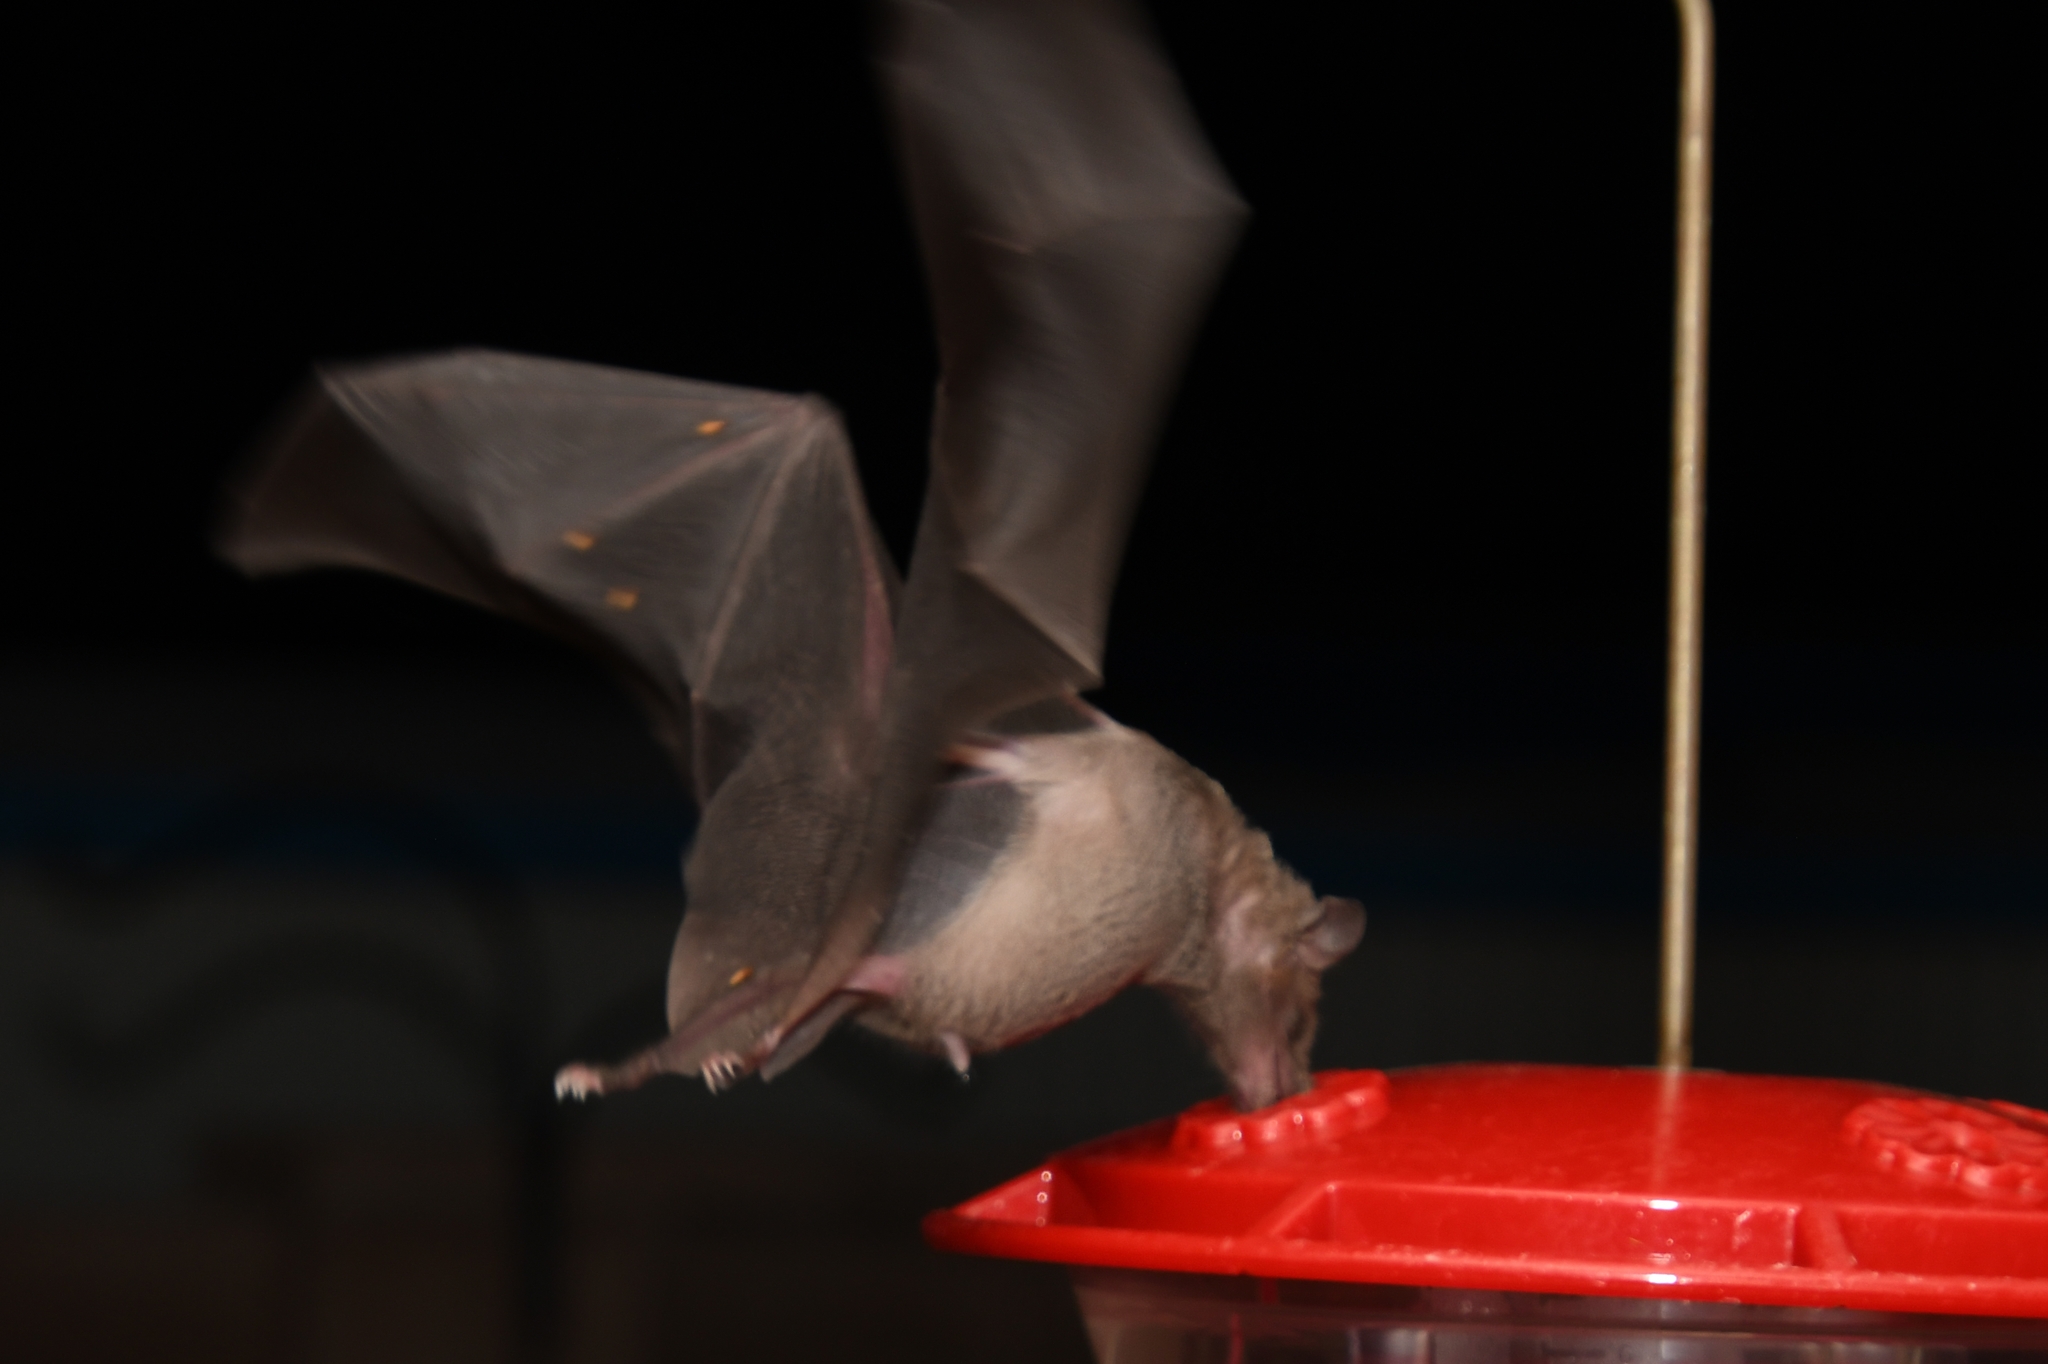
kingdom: Animalia
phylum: Chordata
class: Mammalia
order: Chiroptera
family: Phyllostomidae
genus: Leptonycteris
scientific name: Leptonycteris yerbabuenae
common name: Lesser long-nosed bat
